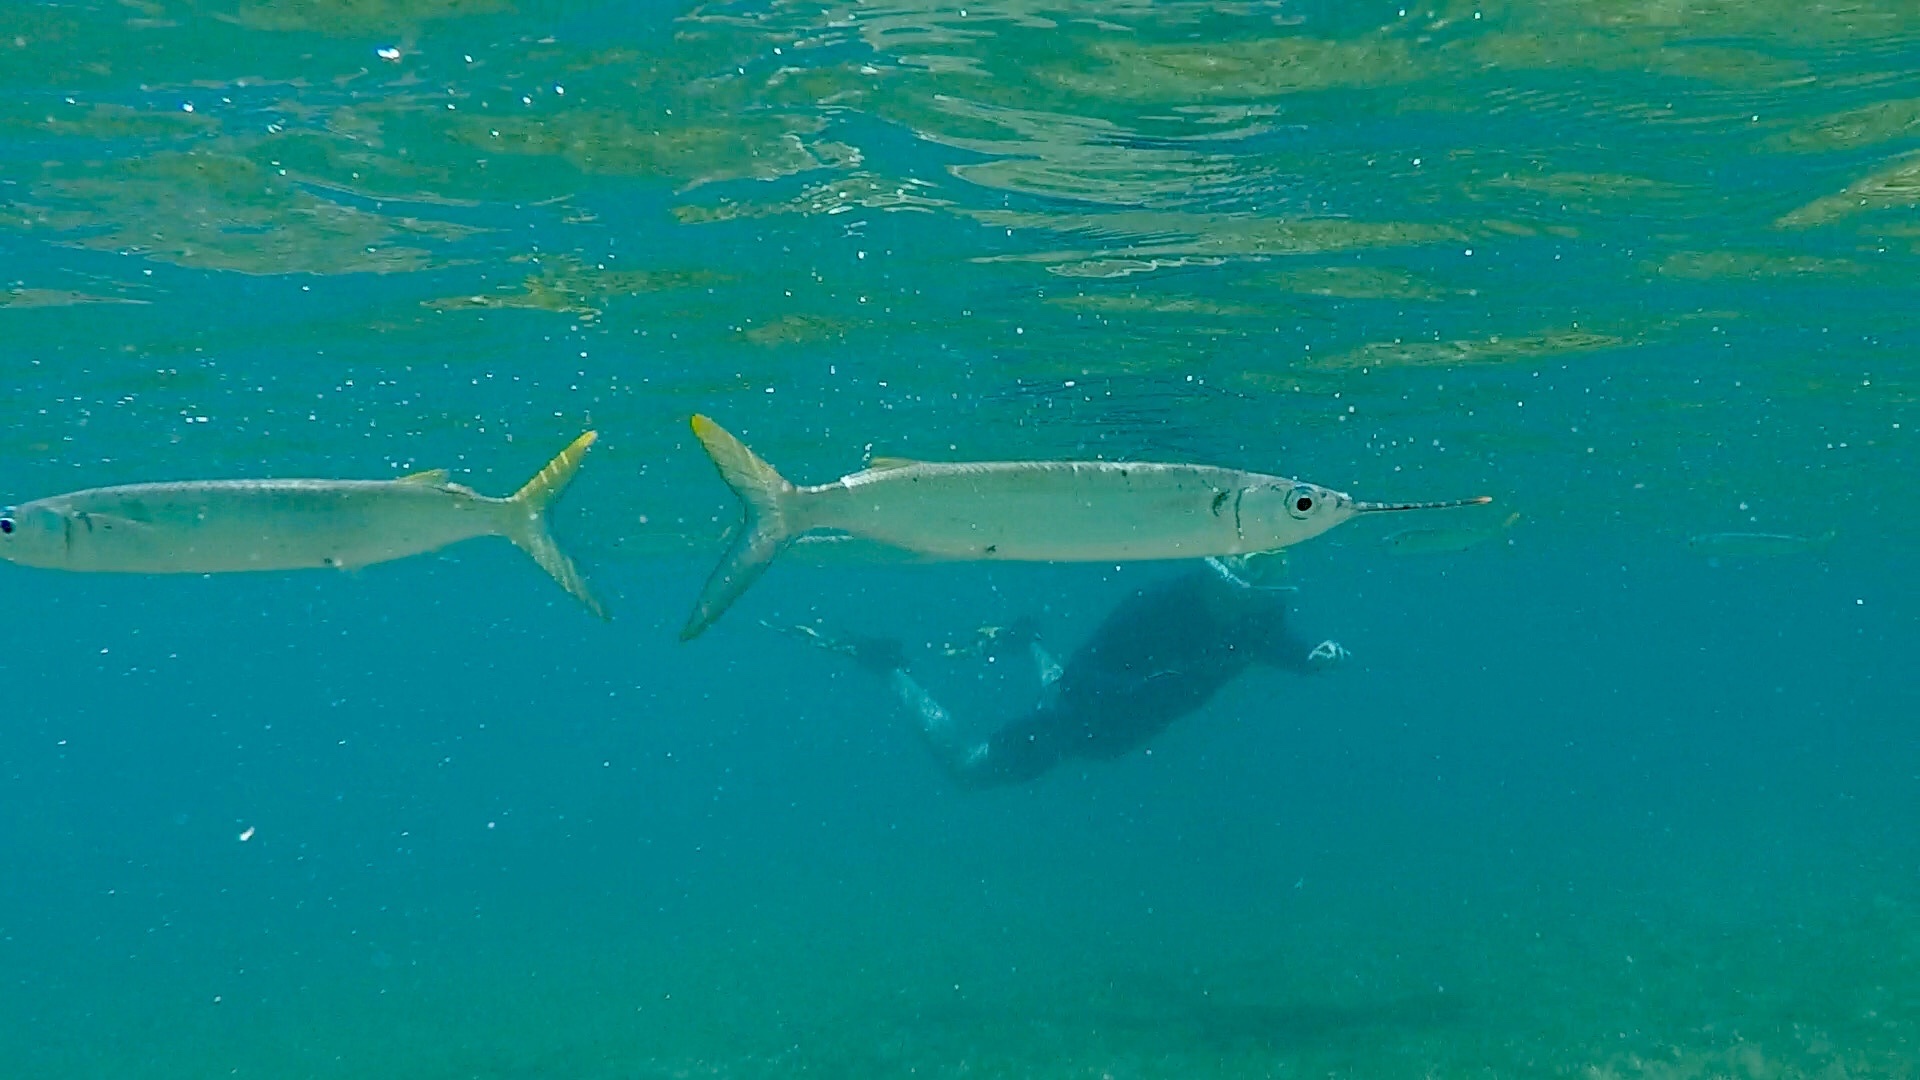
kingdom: Animalia
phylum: Chordata
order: Beloniformes
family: Hemiramphidae
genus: Hemiramphus
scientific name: Hemiramphus brasiliensis
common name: Ballyhoo
